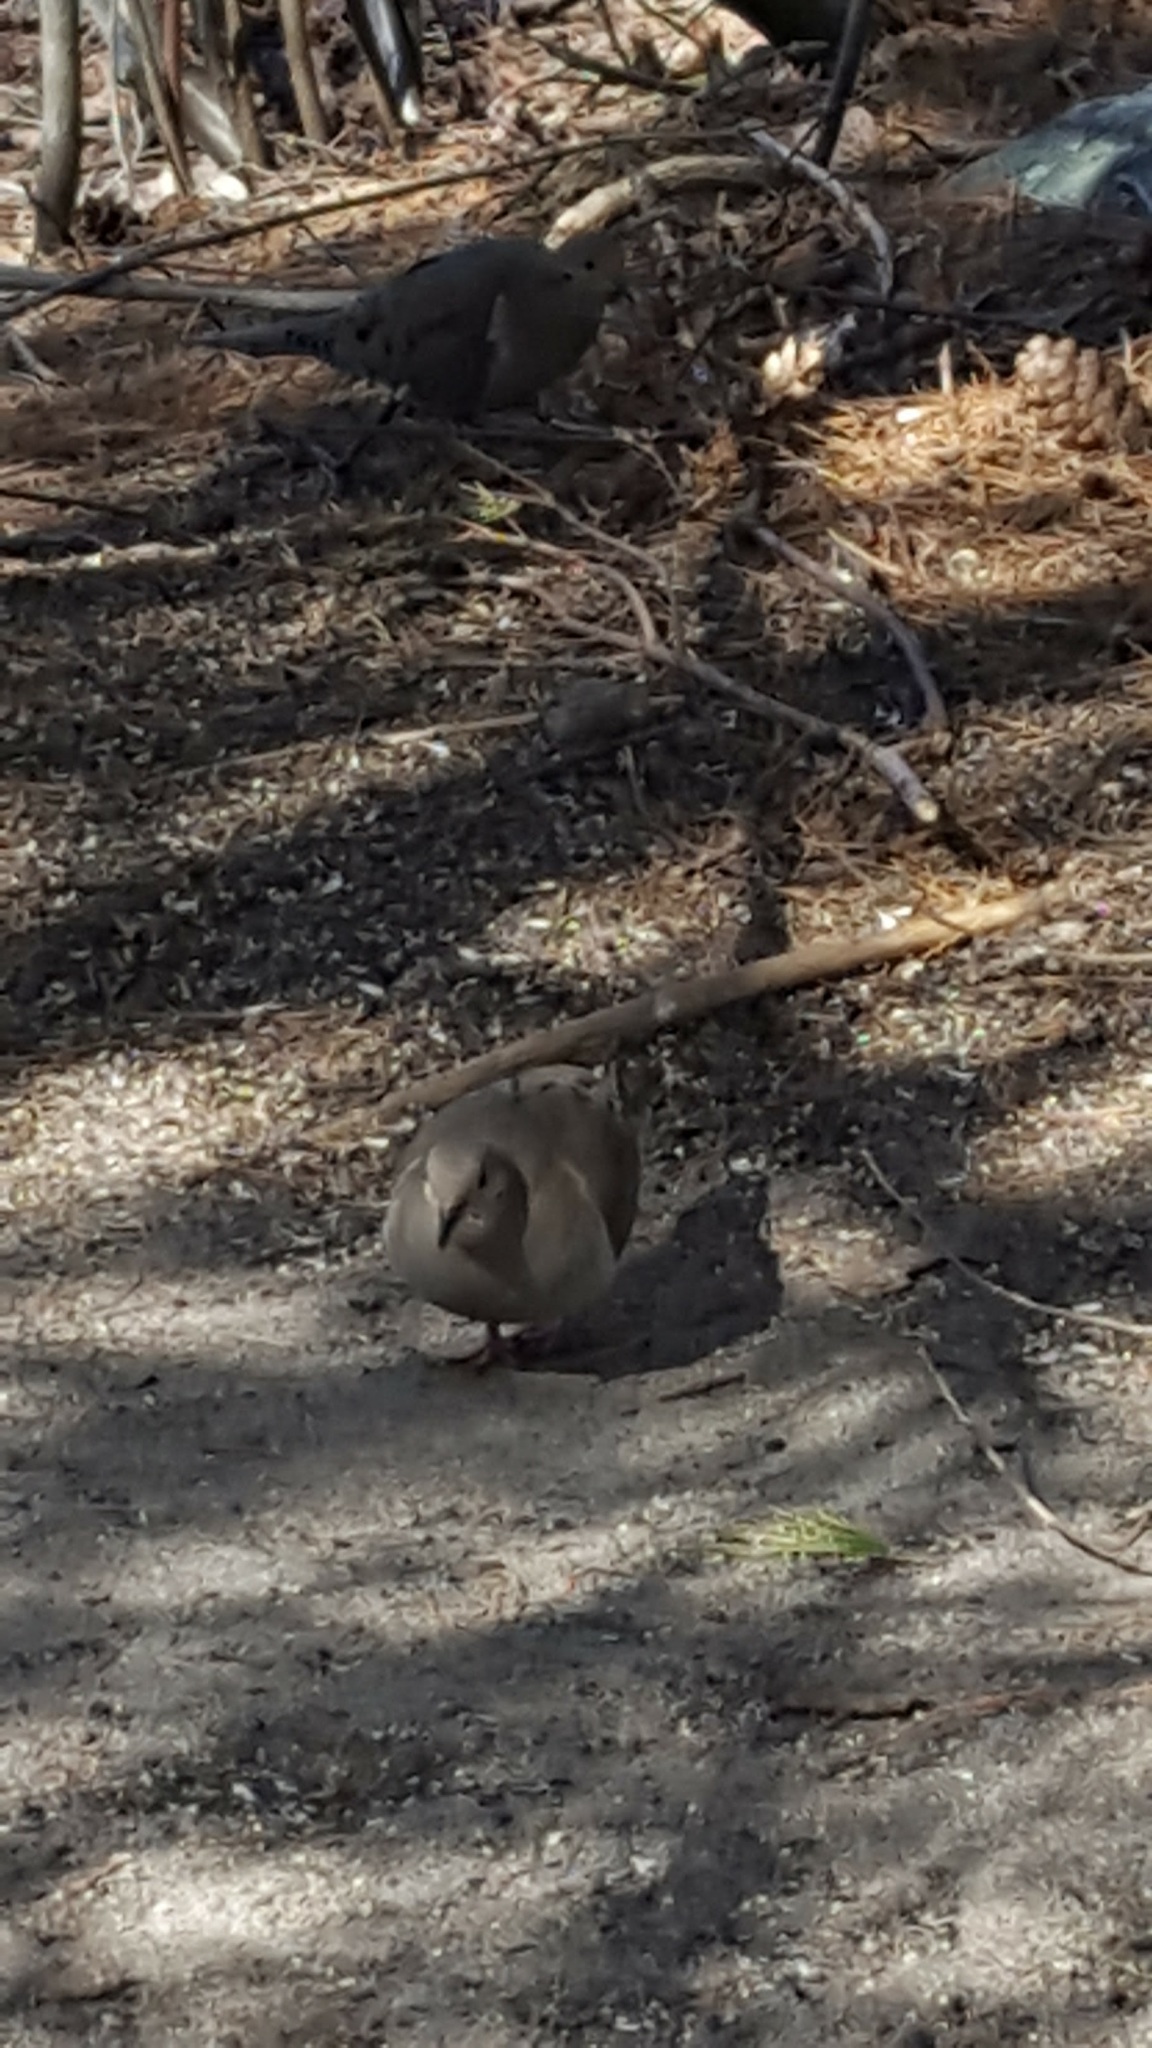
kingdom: Animalia
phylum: Chordata
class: Aves
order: Columbiformes
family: Columbidae
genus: Zenaida
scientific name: Zenaida macroura
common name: Mourning dove
